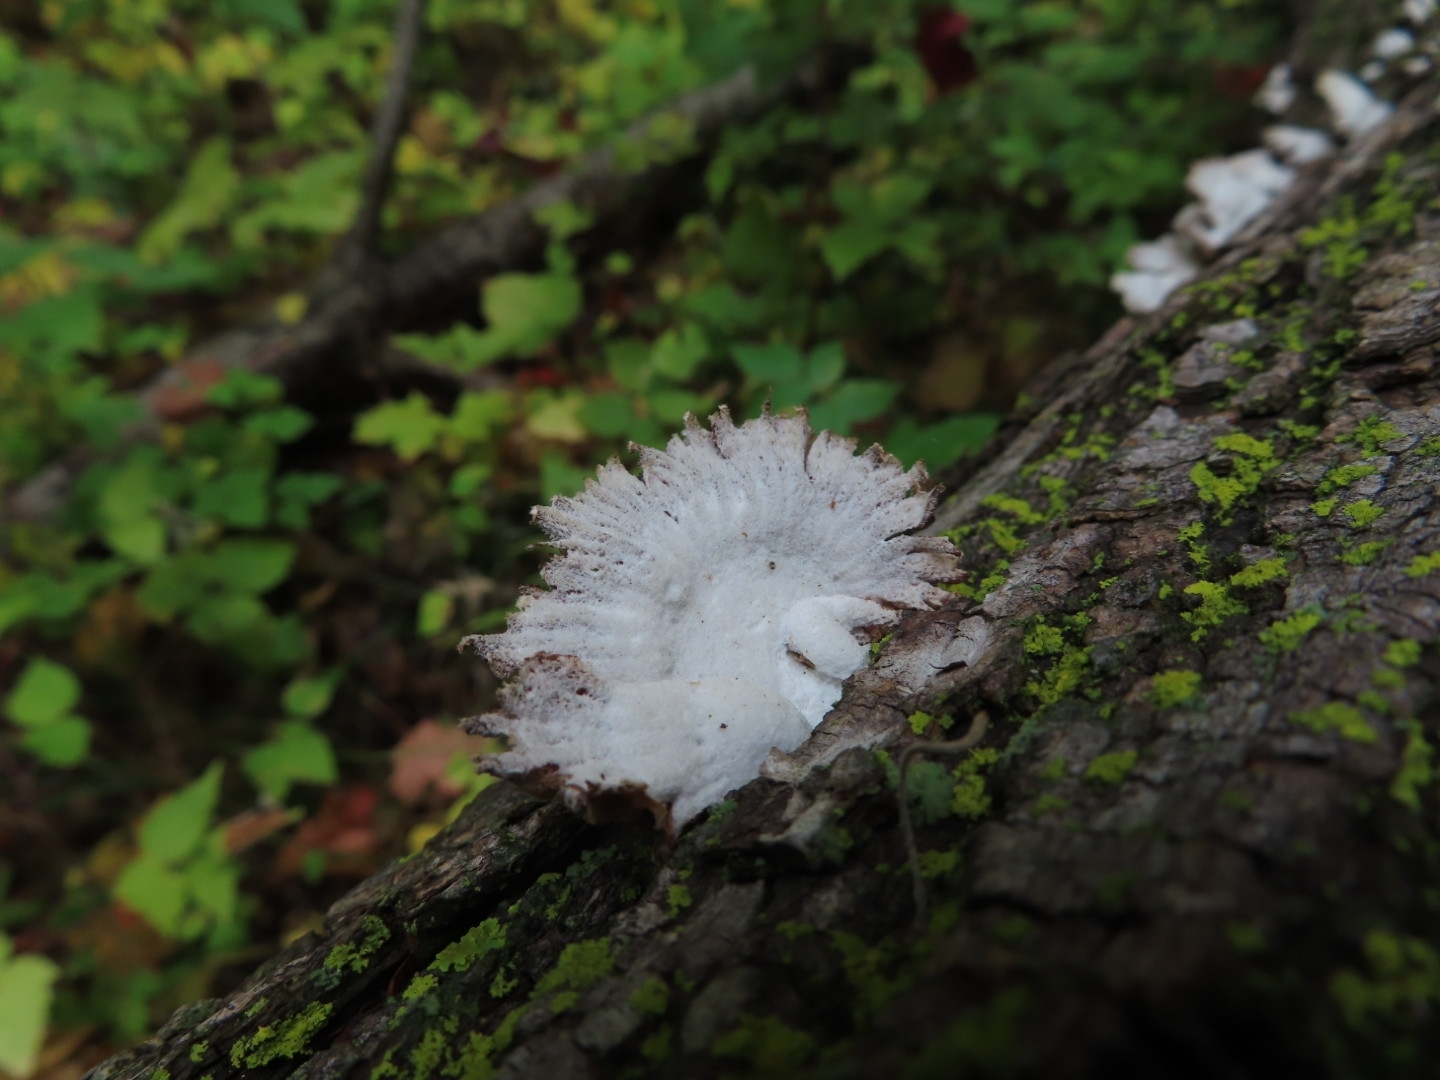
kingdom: Fungi
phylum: Basidiomycota
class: Agaricomycetes
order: Agaricales
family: Schizophyllaceae
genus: Schizophyllum
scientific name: Schizophyllum commune
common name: Common porecrust
